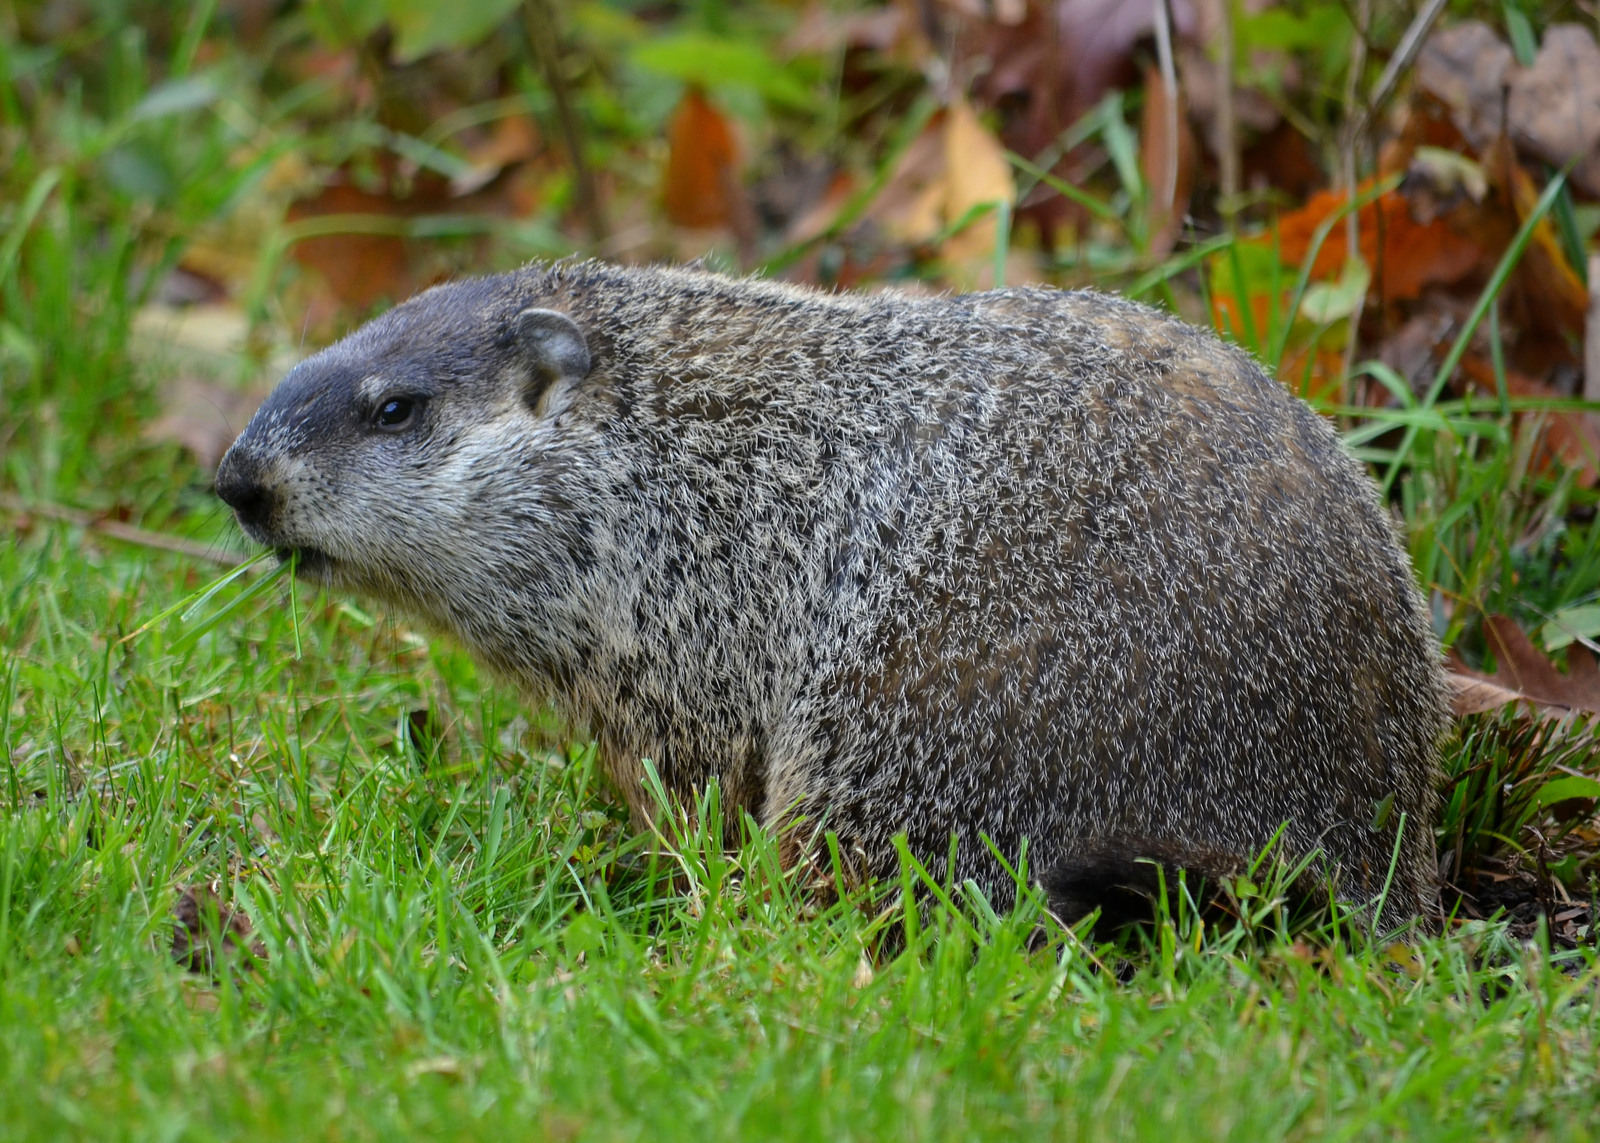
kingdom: Animalia
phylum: Chordata
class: Mammalia
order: Rodentia
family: Sciuridae
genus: Marmota
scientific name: Marmota monax
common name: Groundhog
